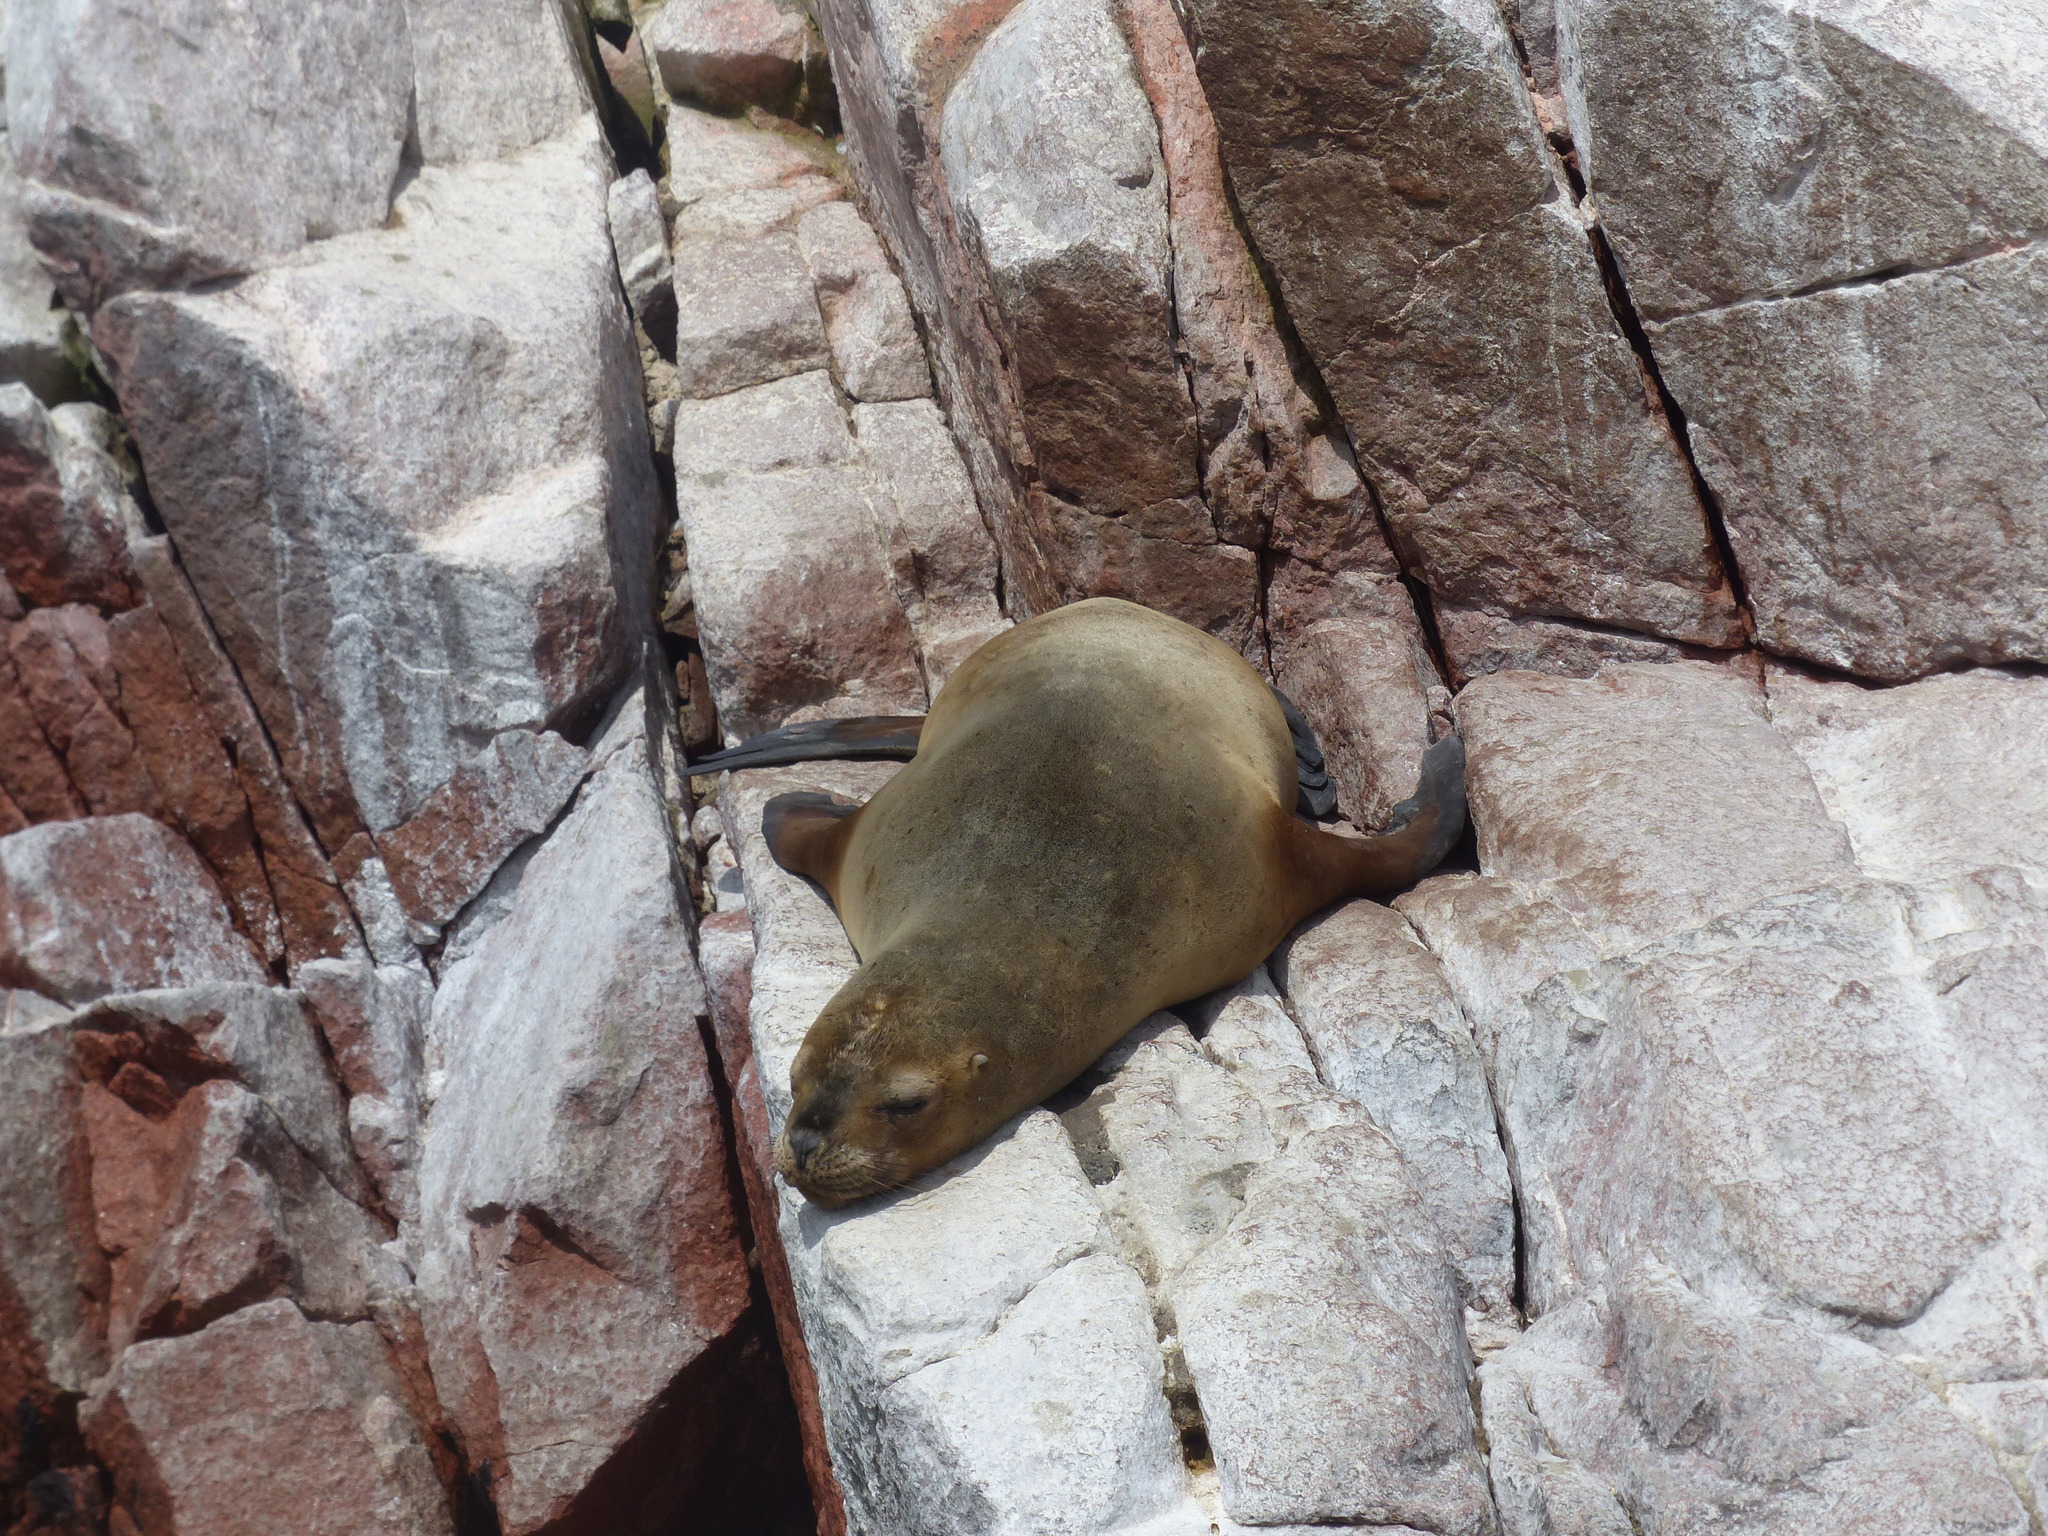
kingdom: Animalia
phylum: Chordata
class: Mammalia
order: Carnivora
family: Otariidae
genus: Otaria
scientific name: Otaria byronia
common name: South american sea lion
